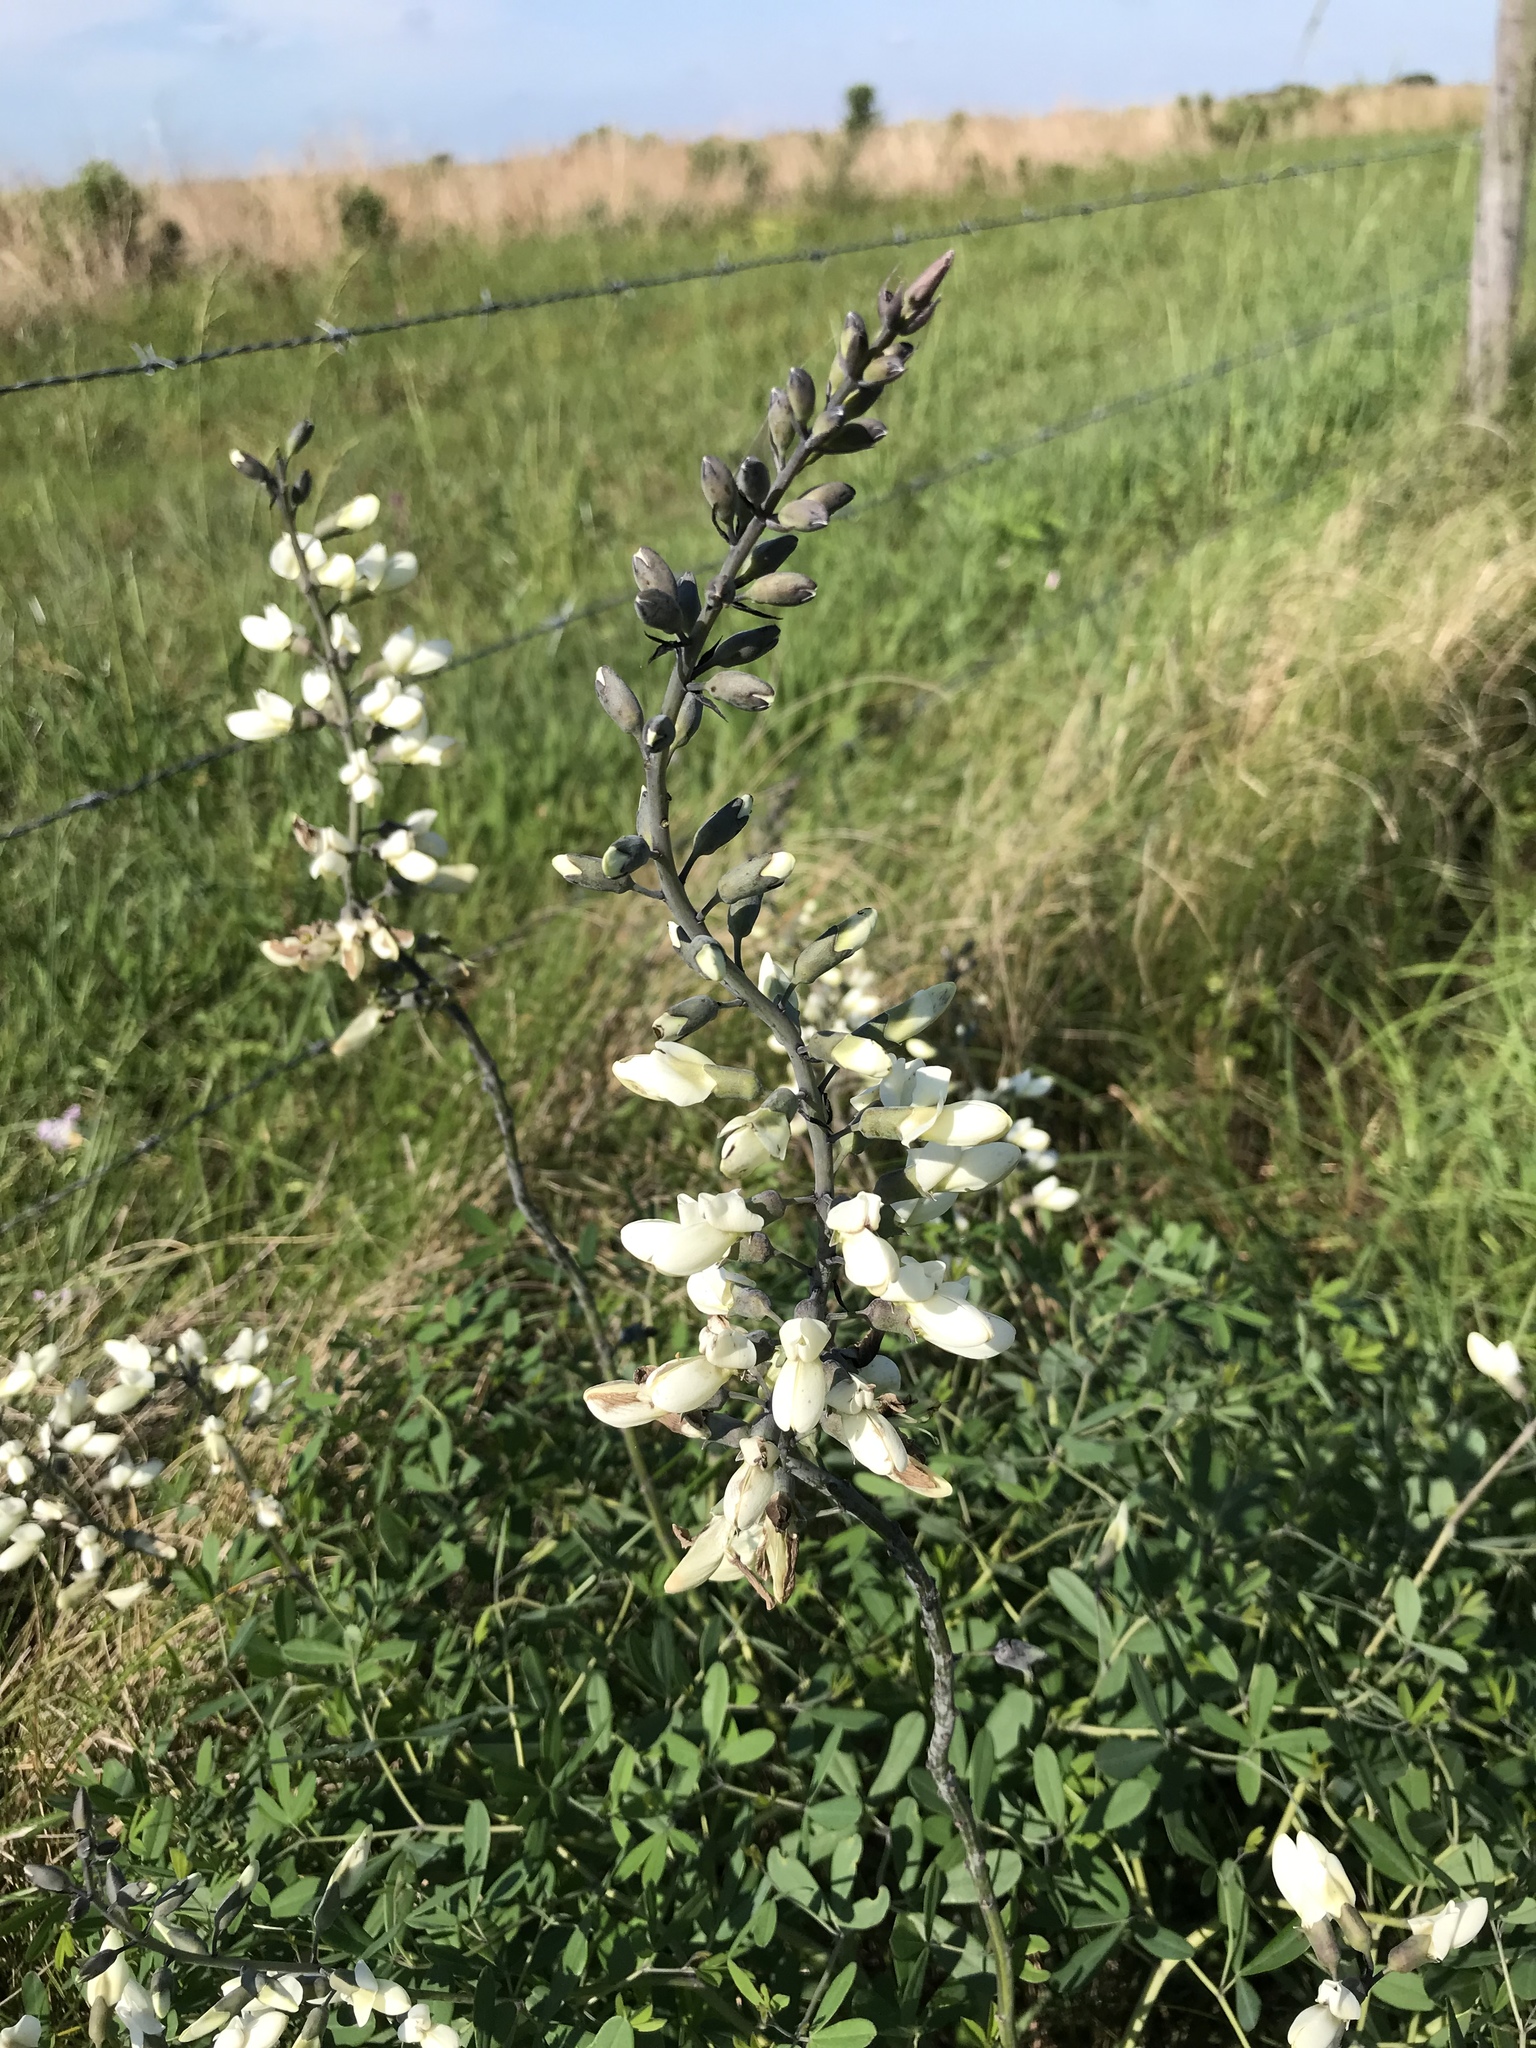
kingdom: Plantae
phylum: Tracheophyta
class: Magnoliopsida
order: Fabales
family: Fabaceae
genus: Baptisia
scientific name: Baptisia alba
